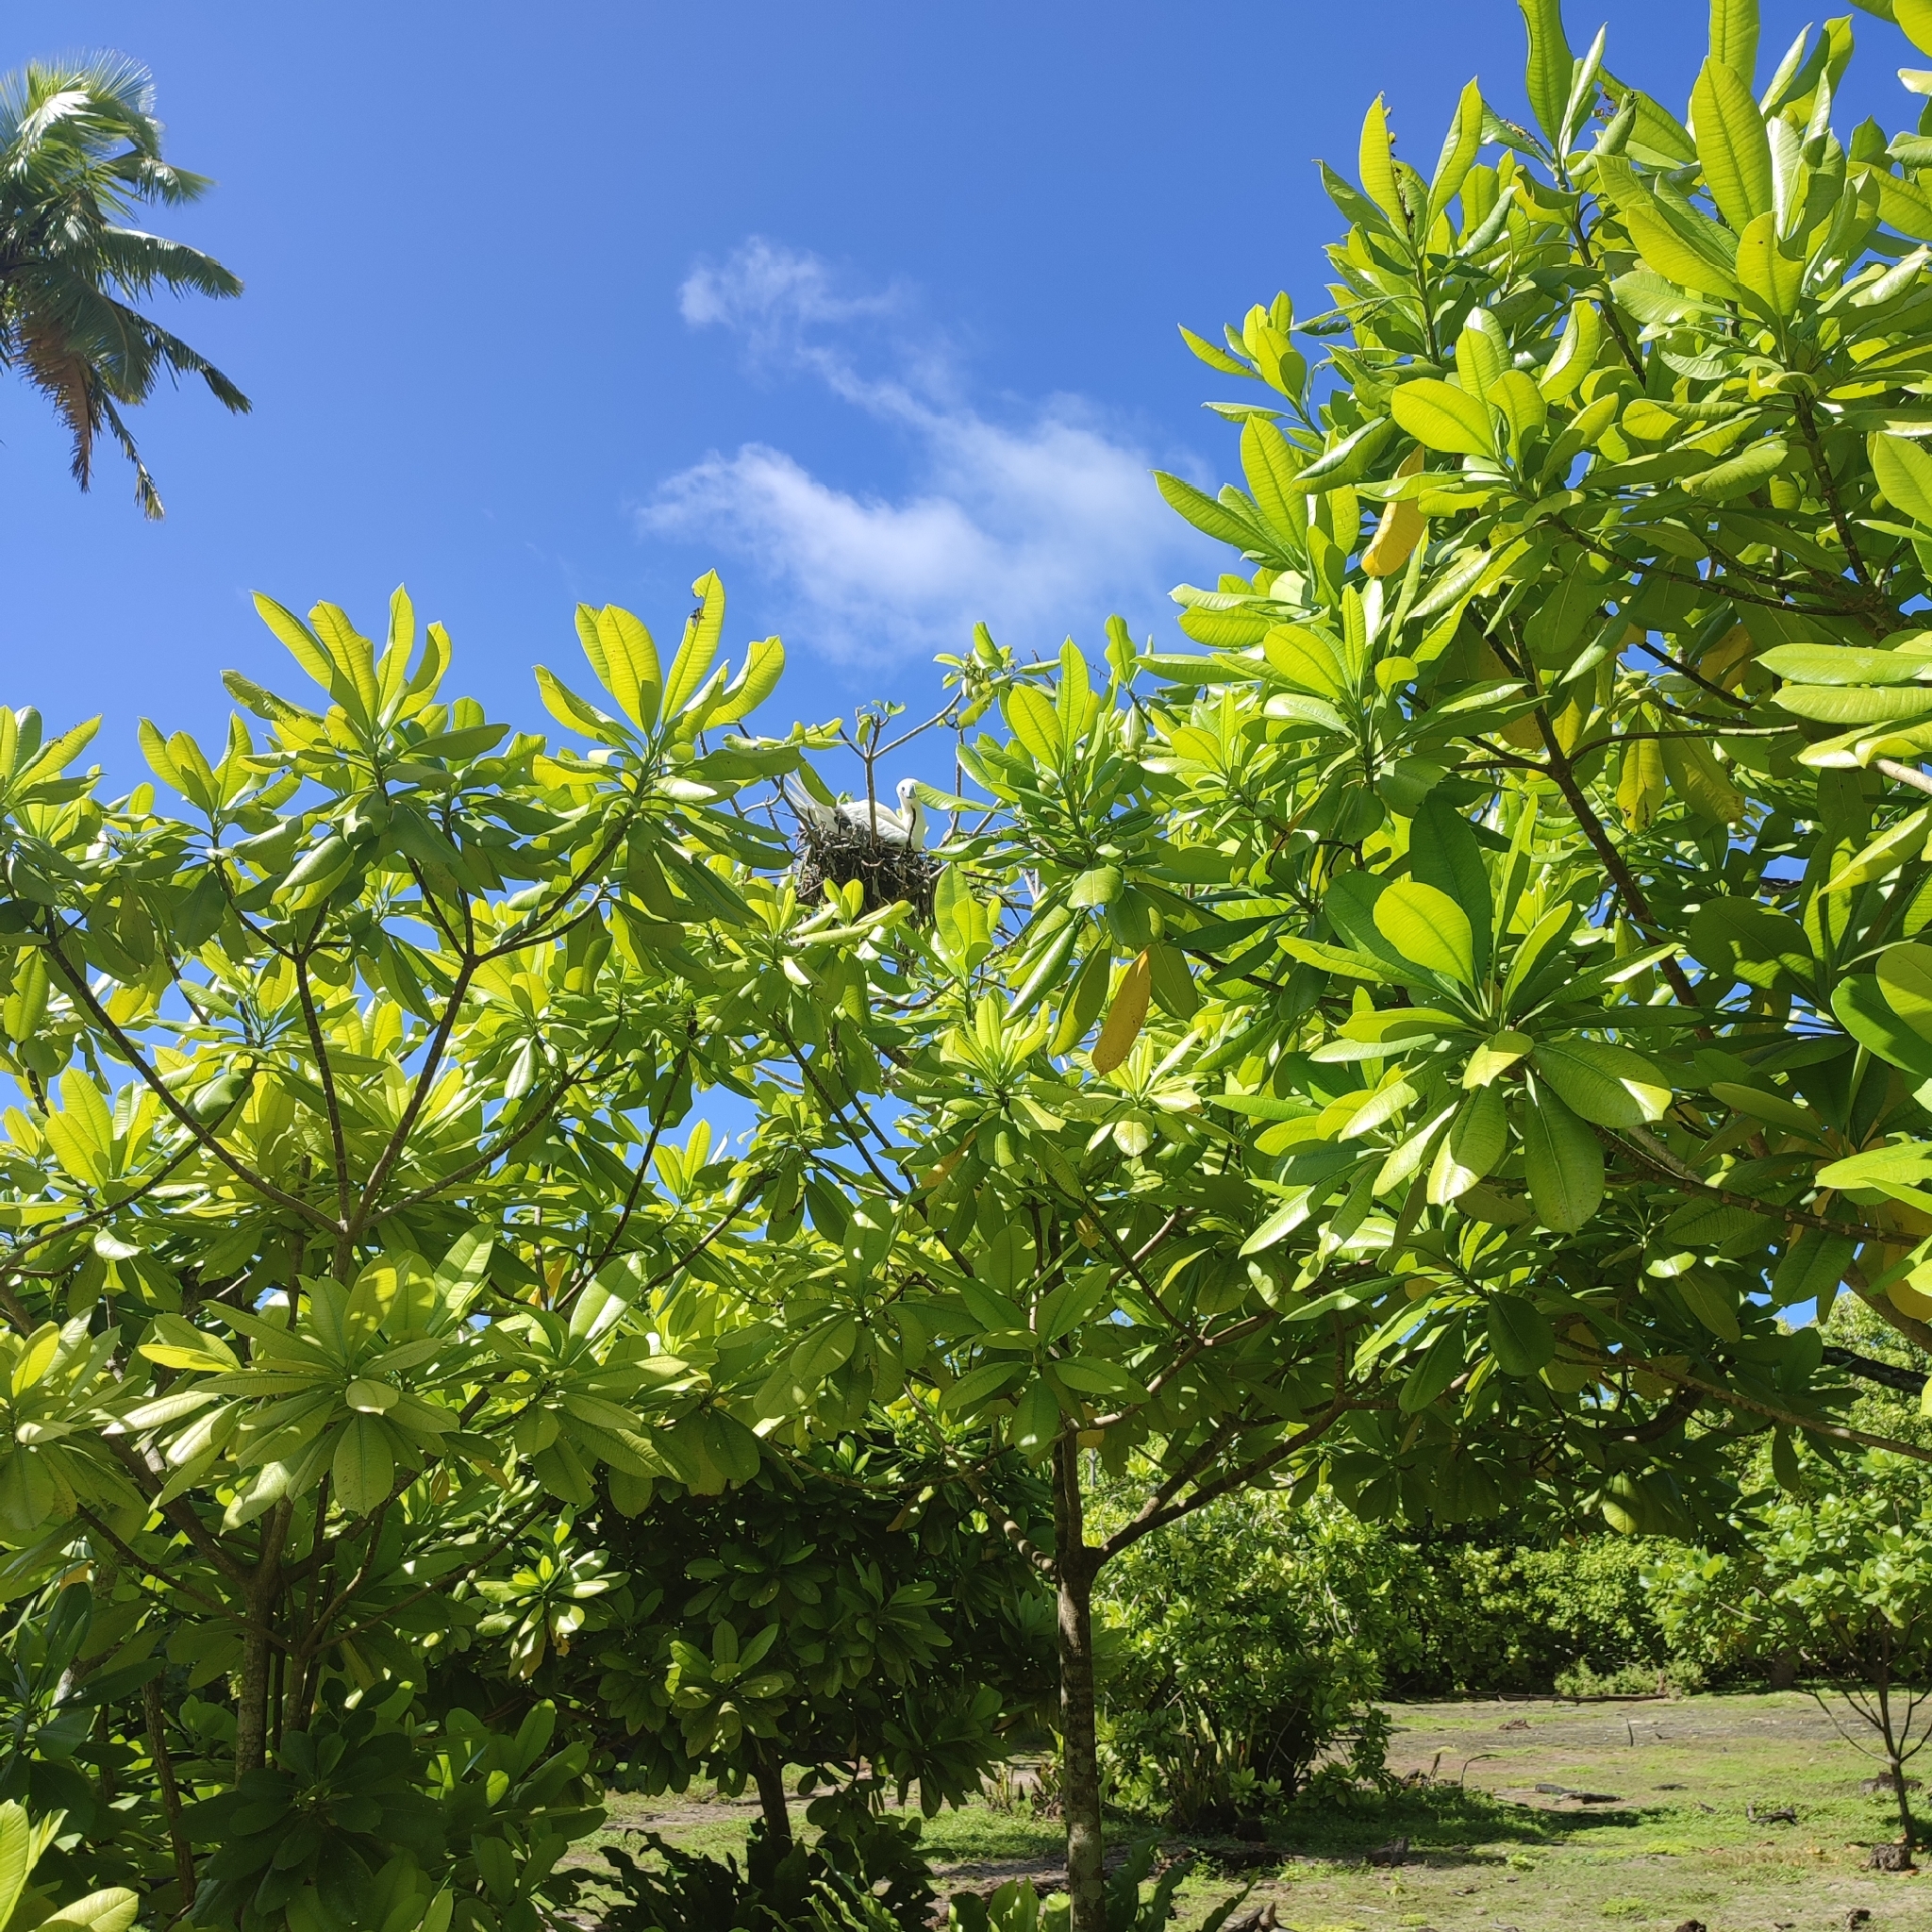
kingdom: Animalia
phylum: Chordata
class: Aves
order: Suliformes
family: Sulidae
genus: Sula
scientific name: Sula sula
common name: Red-footed booby
